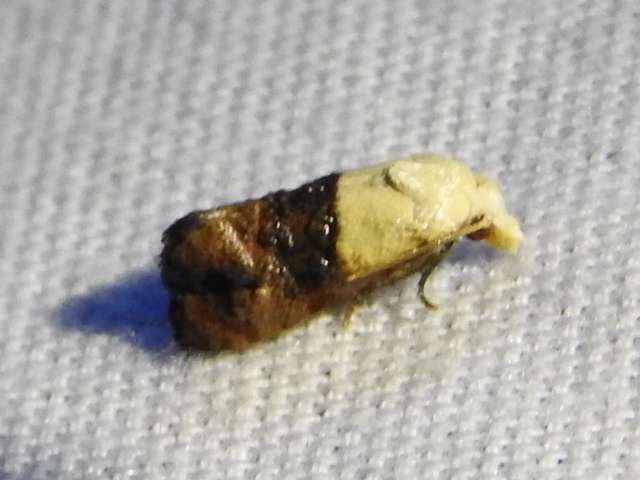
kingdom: Animalia
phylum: Arthropoda
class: Insecta
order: Lepidoptera
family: Tortricidae
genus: Eugnosta
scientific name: Eugnosta erigeronana
